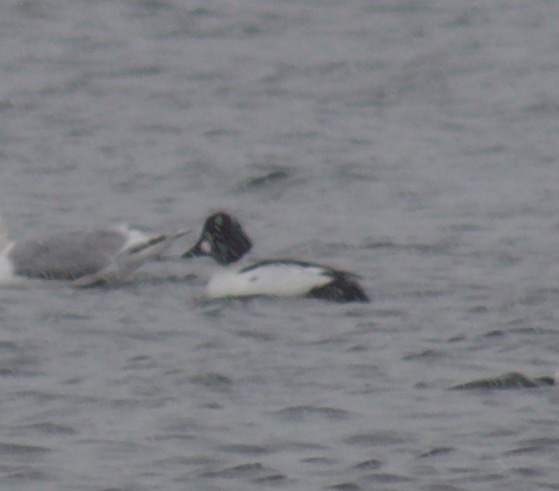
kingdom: Animalia
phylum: Chordata
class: Aves
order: Anseriformes
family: Anatidae
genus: Bucephala
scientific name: Bucephala clangula
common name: Common goldeneye
